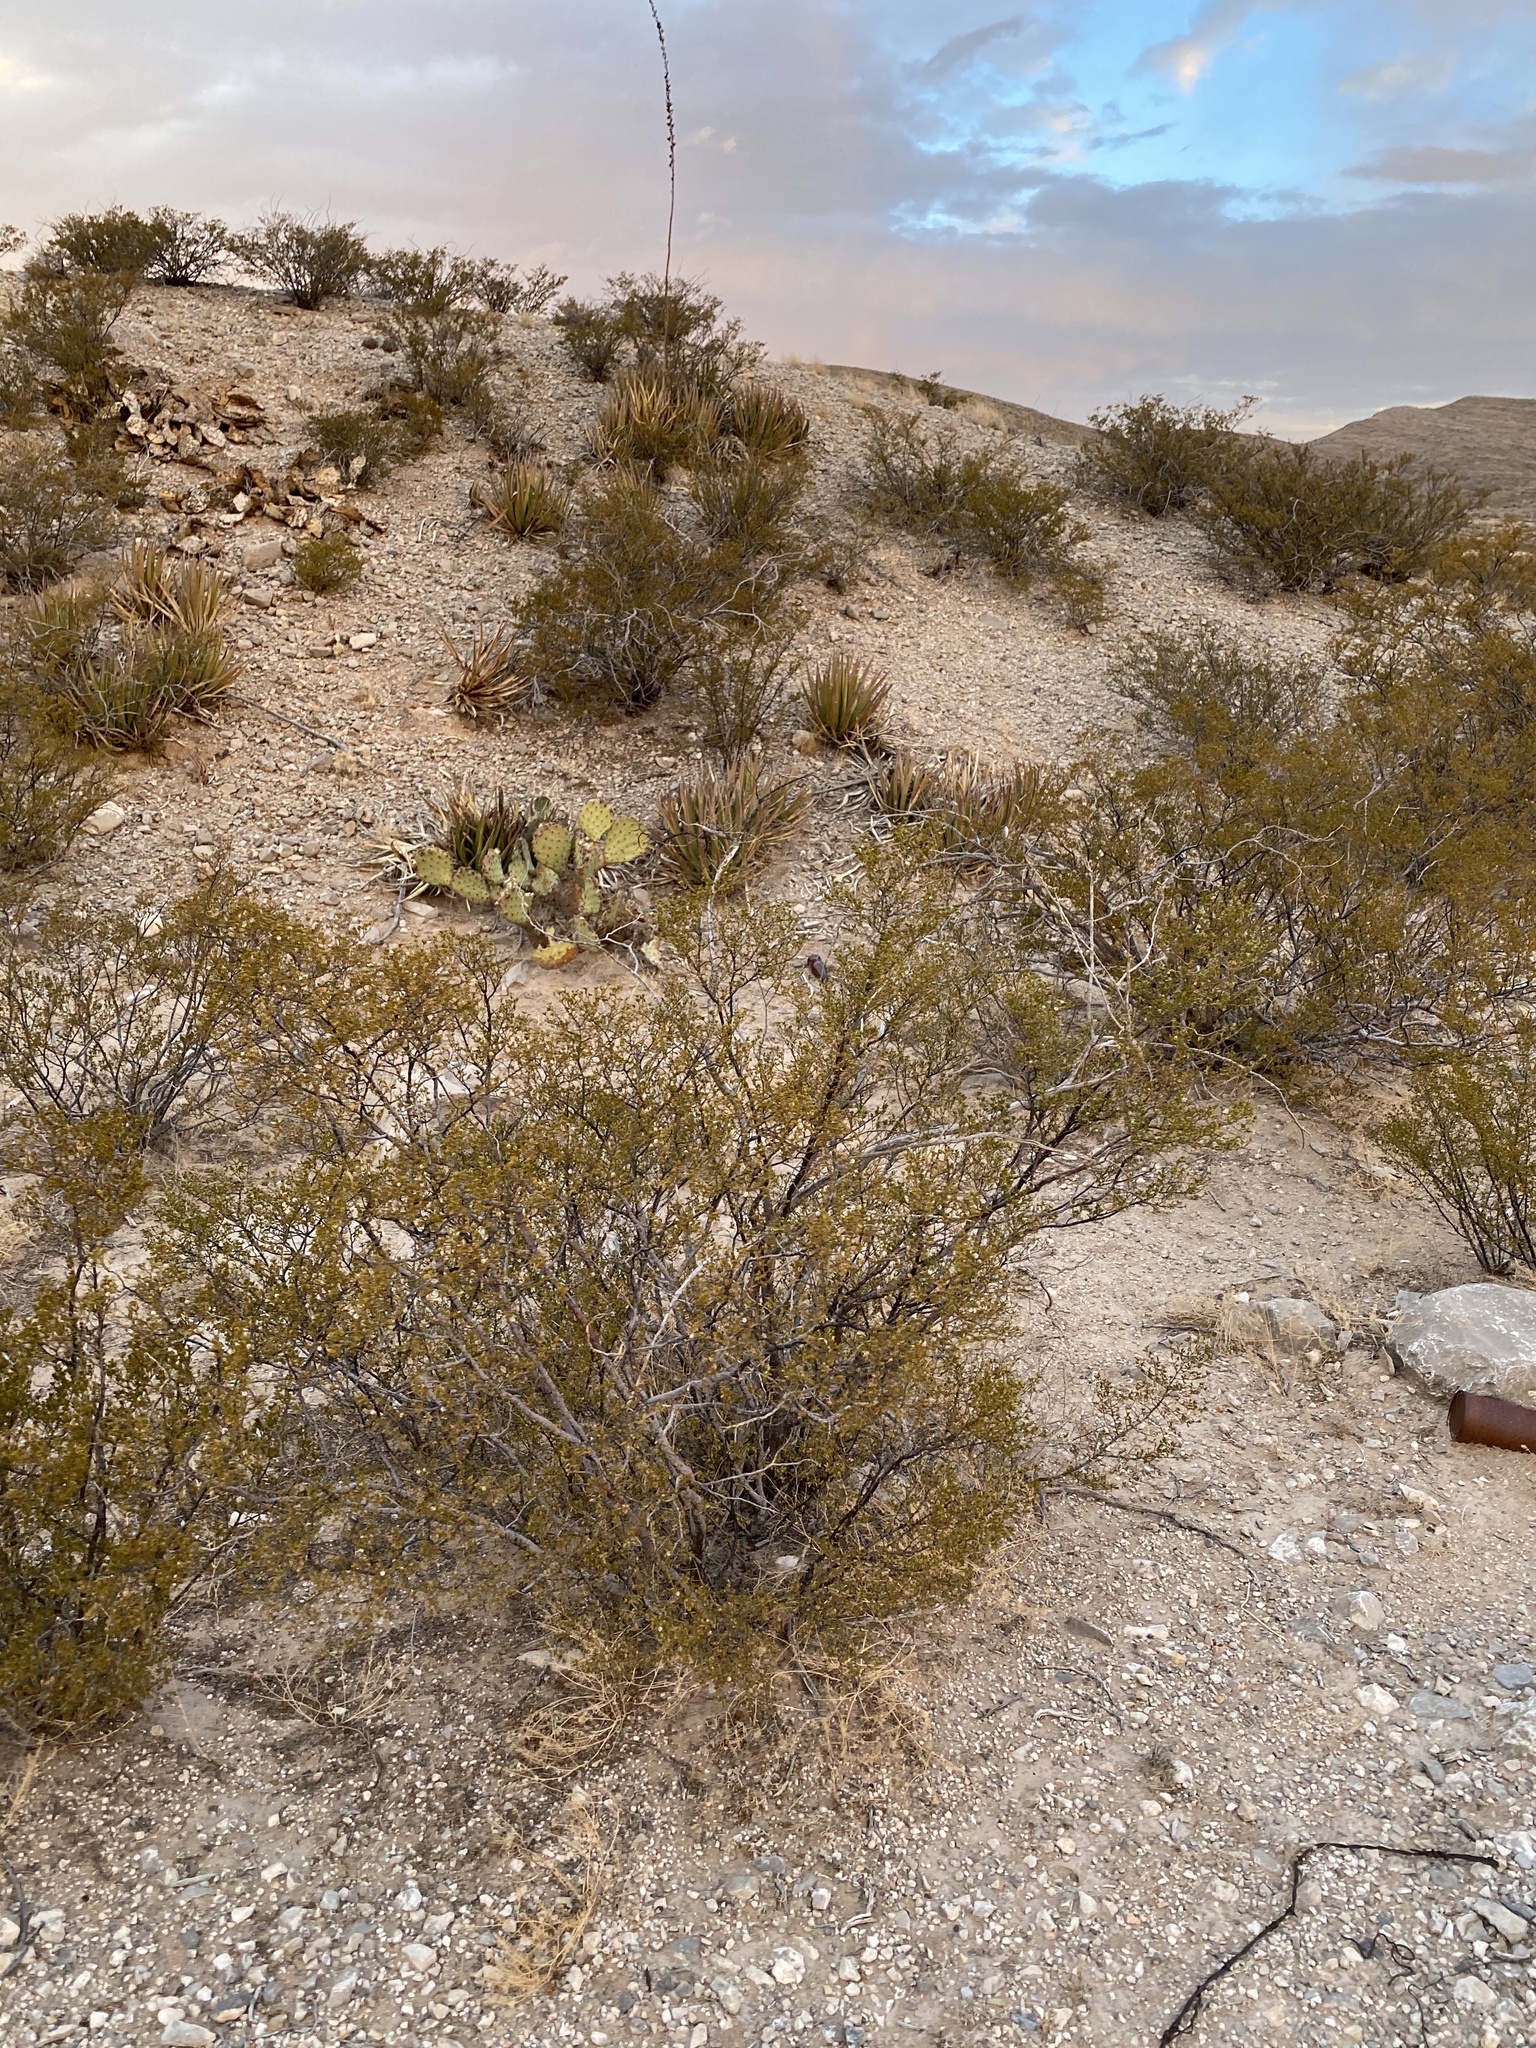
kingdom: Plantae
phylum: Tracheophyta
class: Magnoliopsida
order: Zygophyllales
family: Zygophyllaceae
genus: Larrea
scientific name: Larrea tridentata
